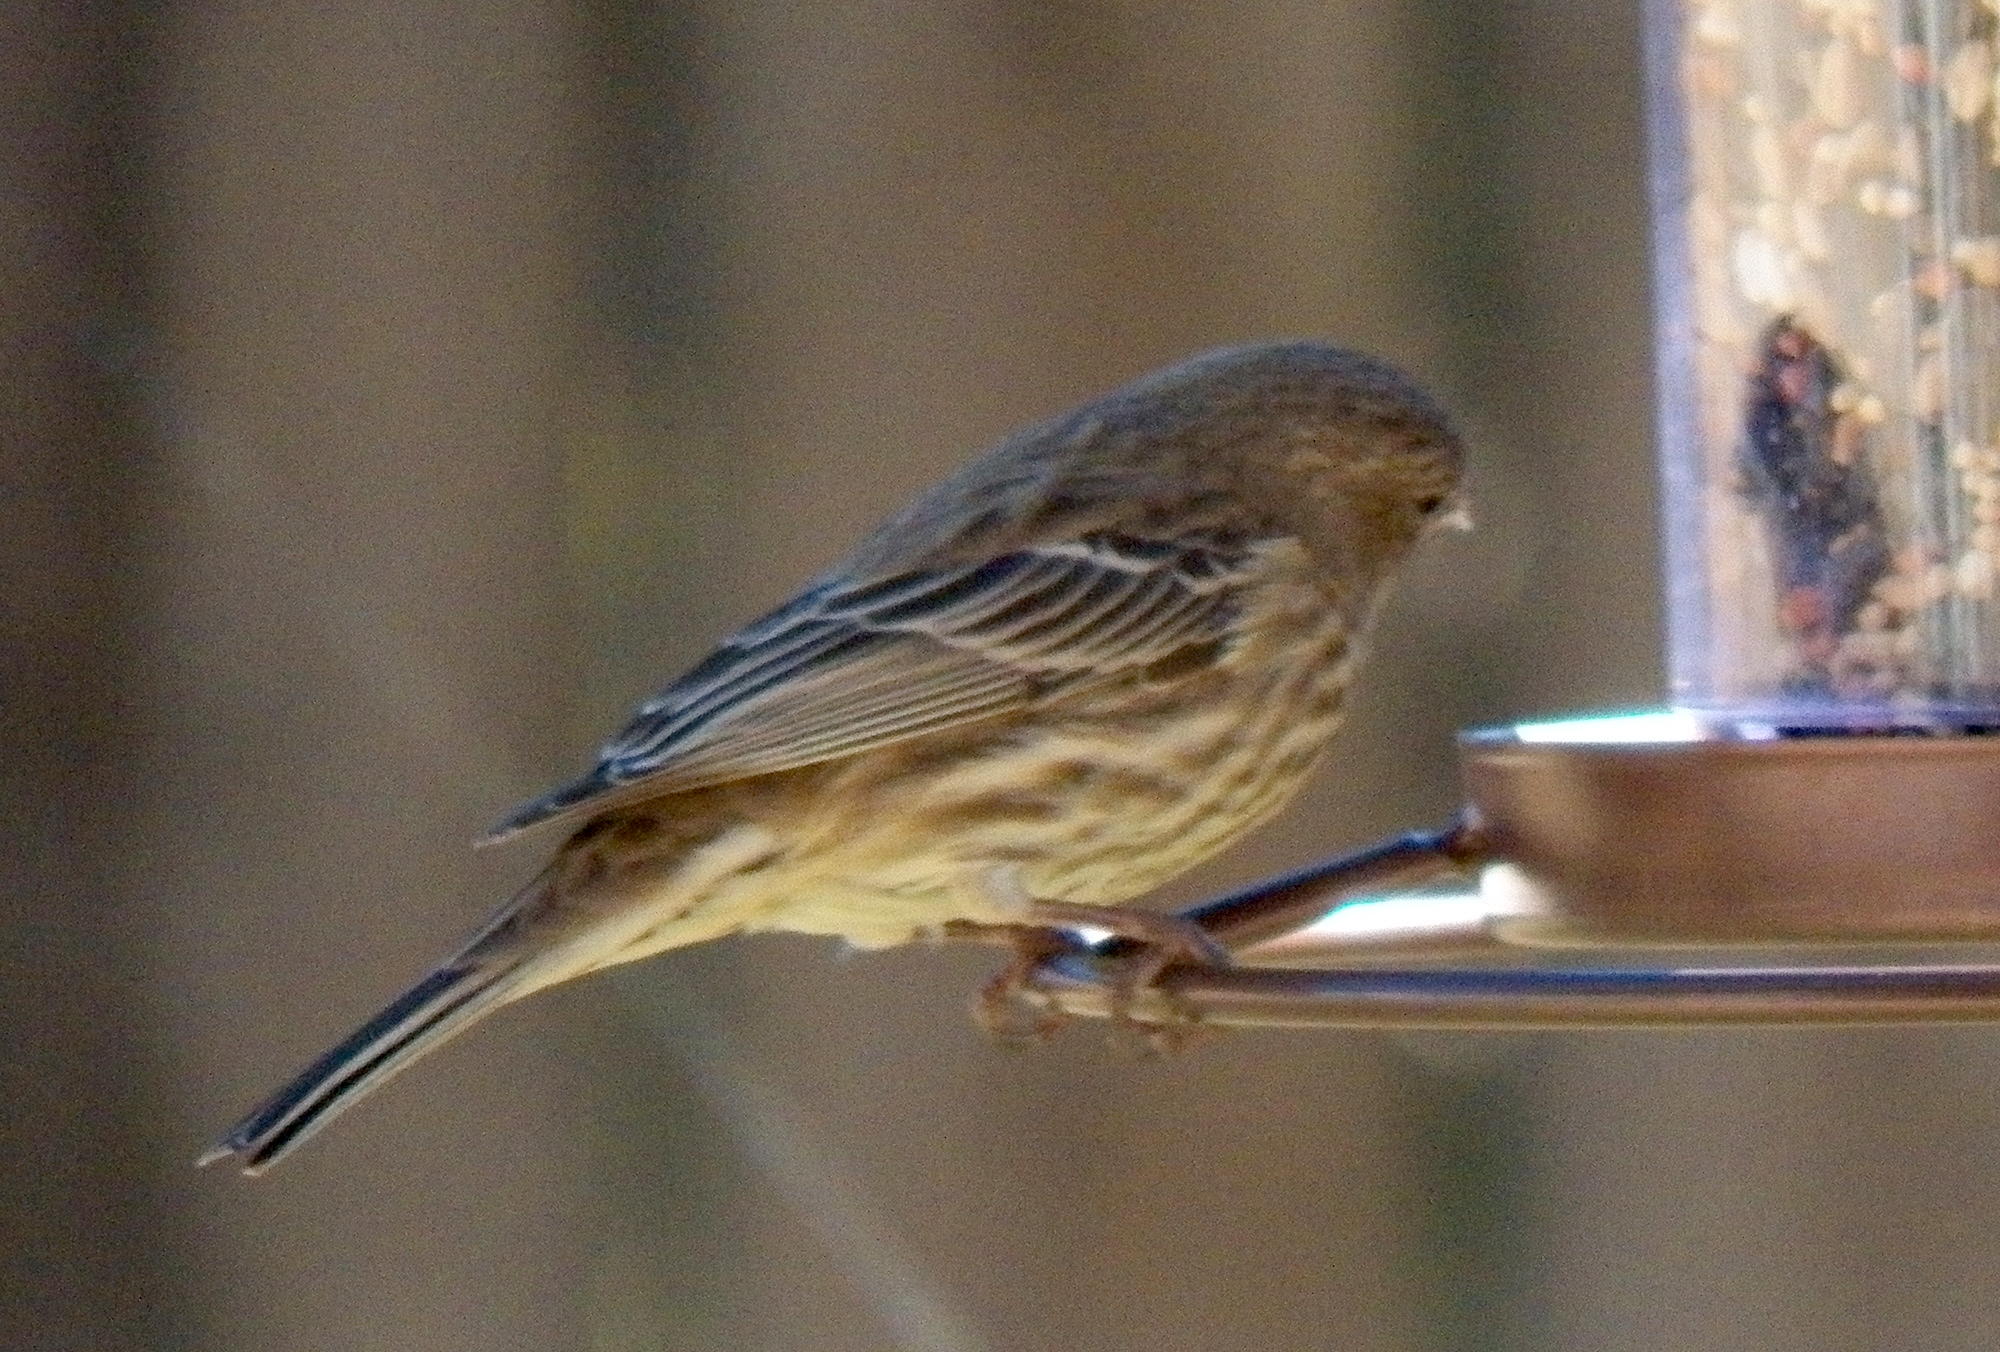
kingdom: Animalia
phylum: Chordata
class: Aves
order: Passeriformes
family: Fringillidae
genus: Haemorhous
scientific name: Haemorhous mexicanus
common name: House finch
